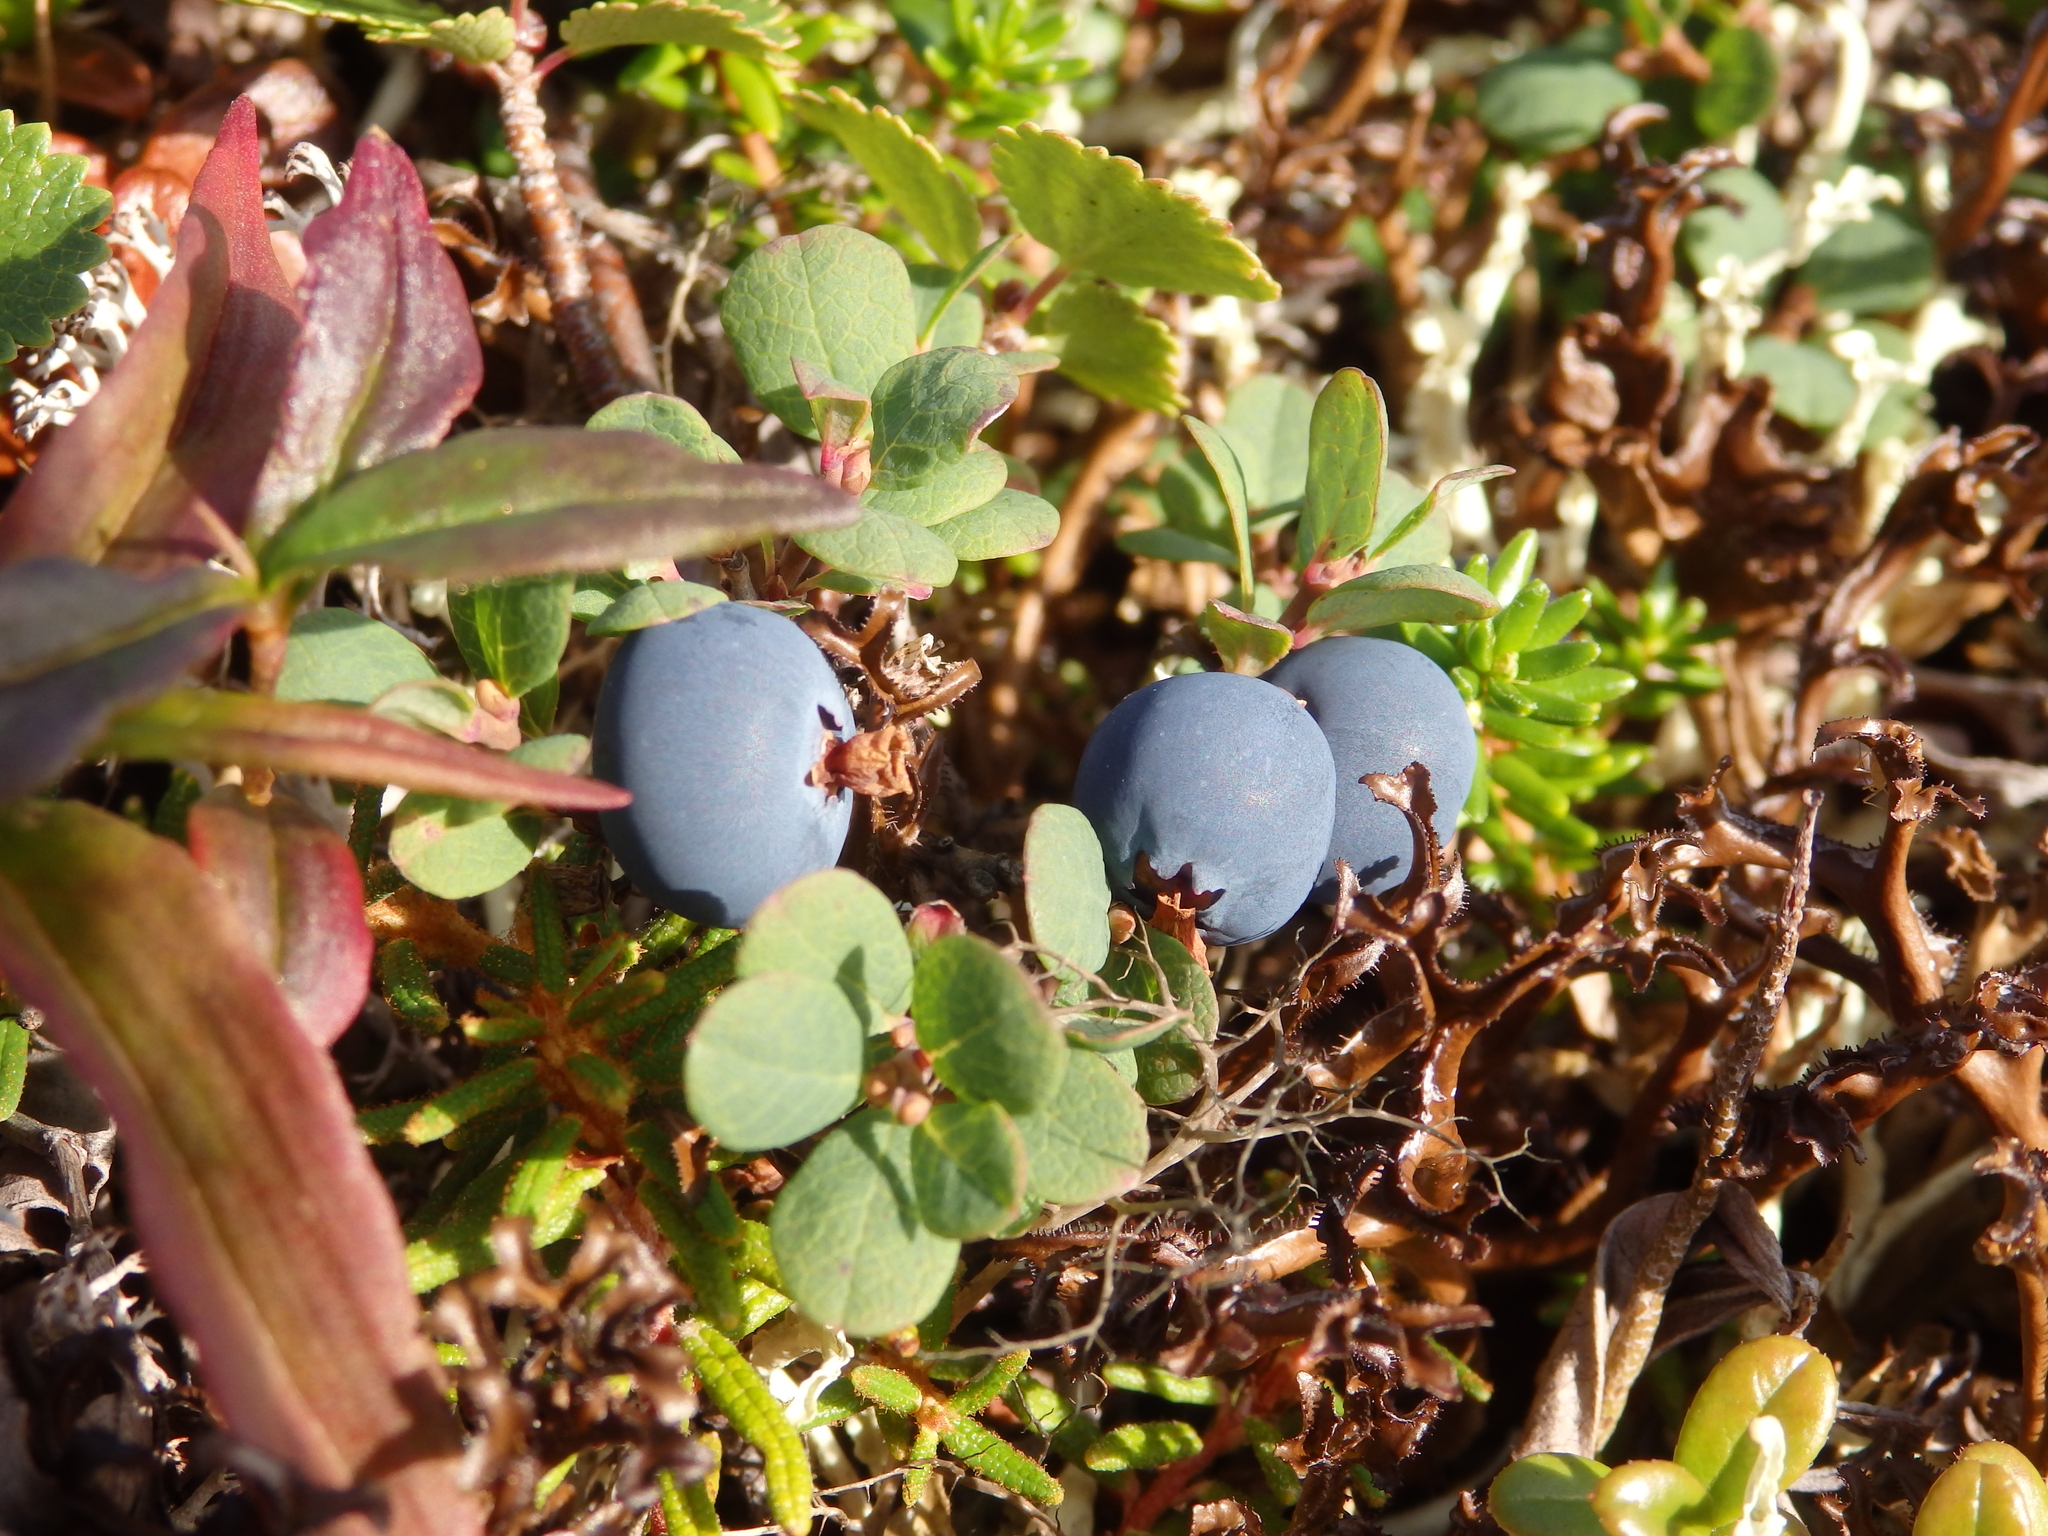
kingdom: Plantae
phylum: Tracheophyta
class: Magnoliopsida
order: Ericales
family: Ericaceae
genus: Vaccinium
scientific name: Vaccinium uliginosum
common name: Bog bilberry
